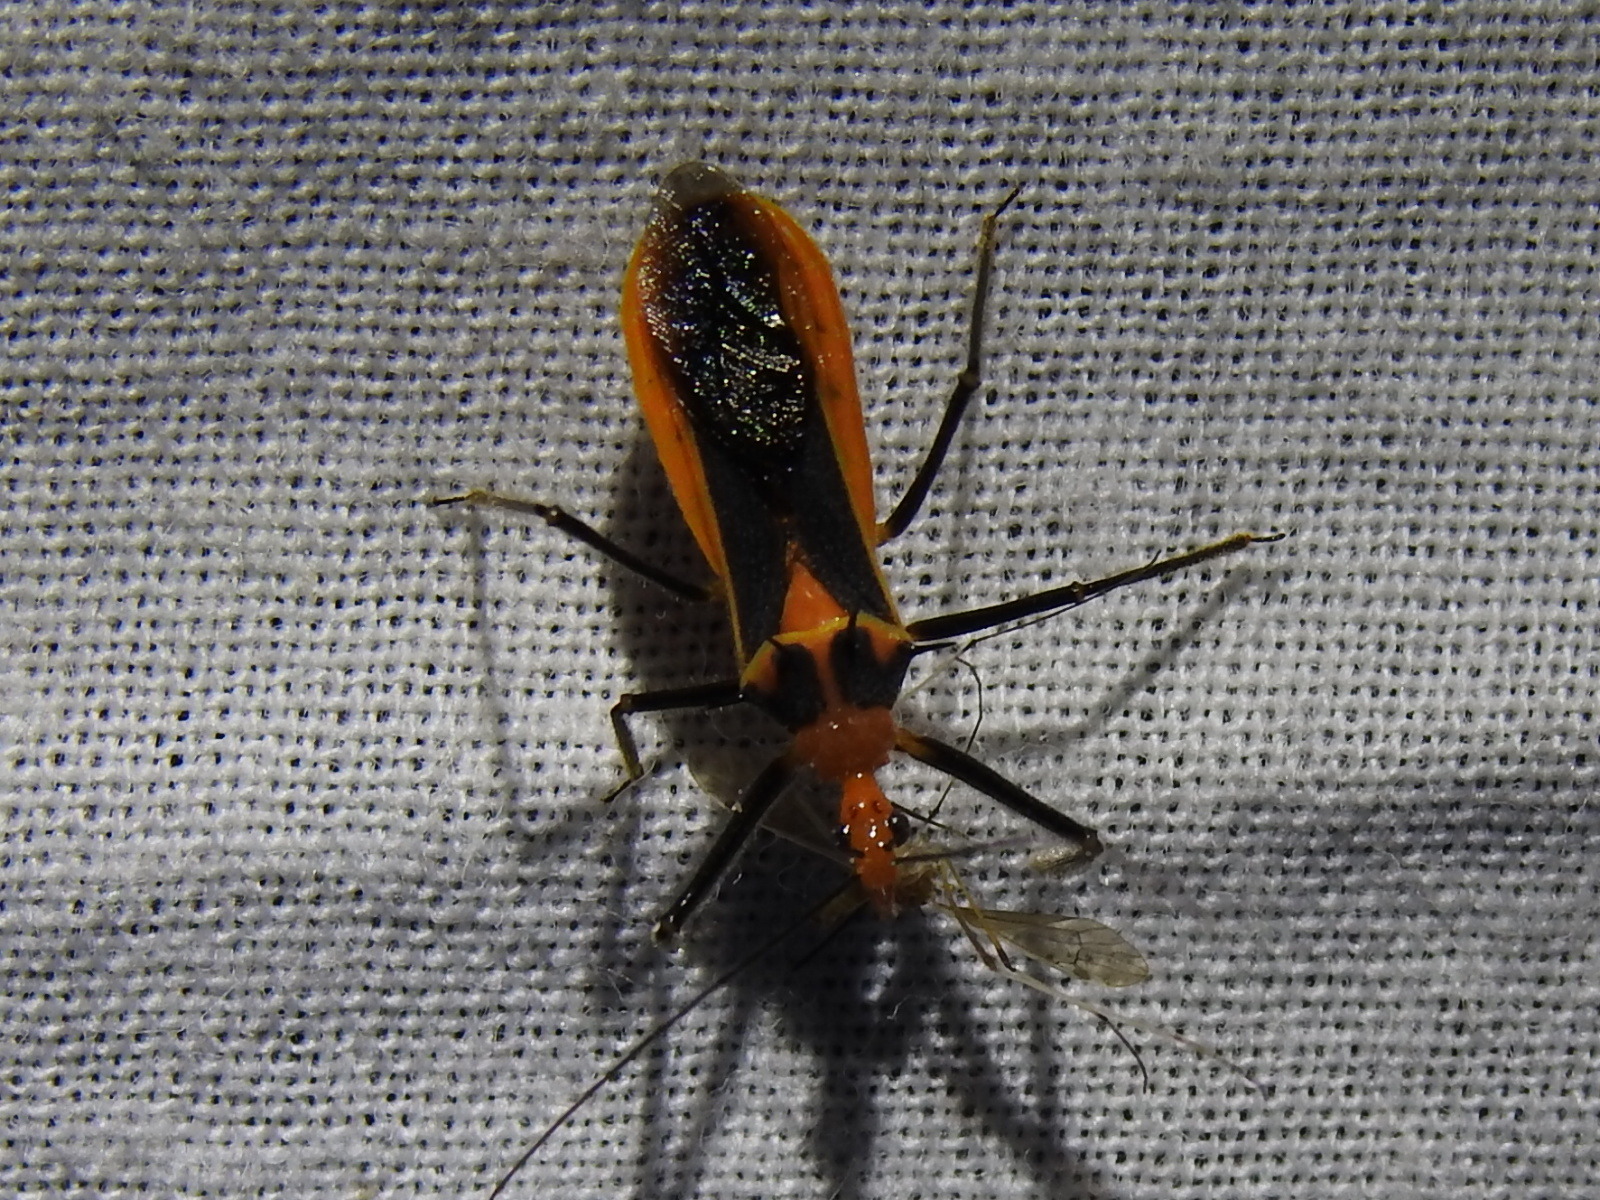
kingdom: Animalia
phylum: Arthropoda
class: Insecta
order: Hemiptera
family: Reduviidae
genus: Repipta
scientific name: Repipta taurus
